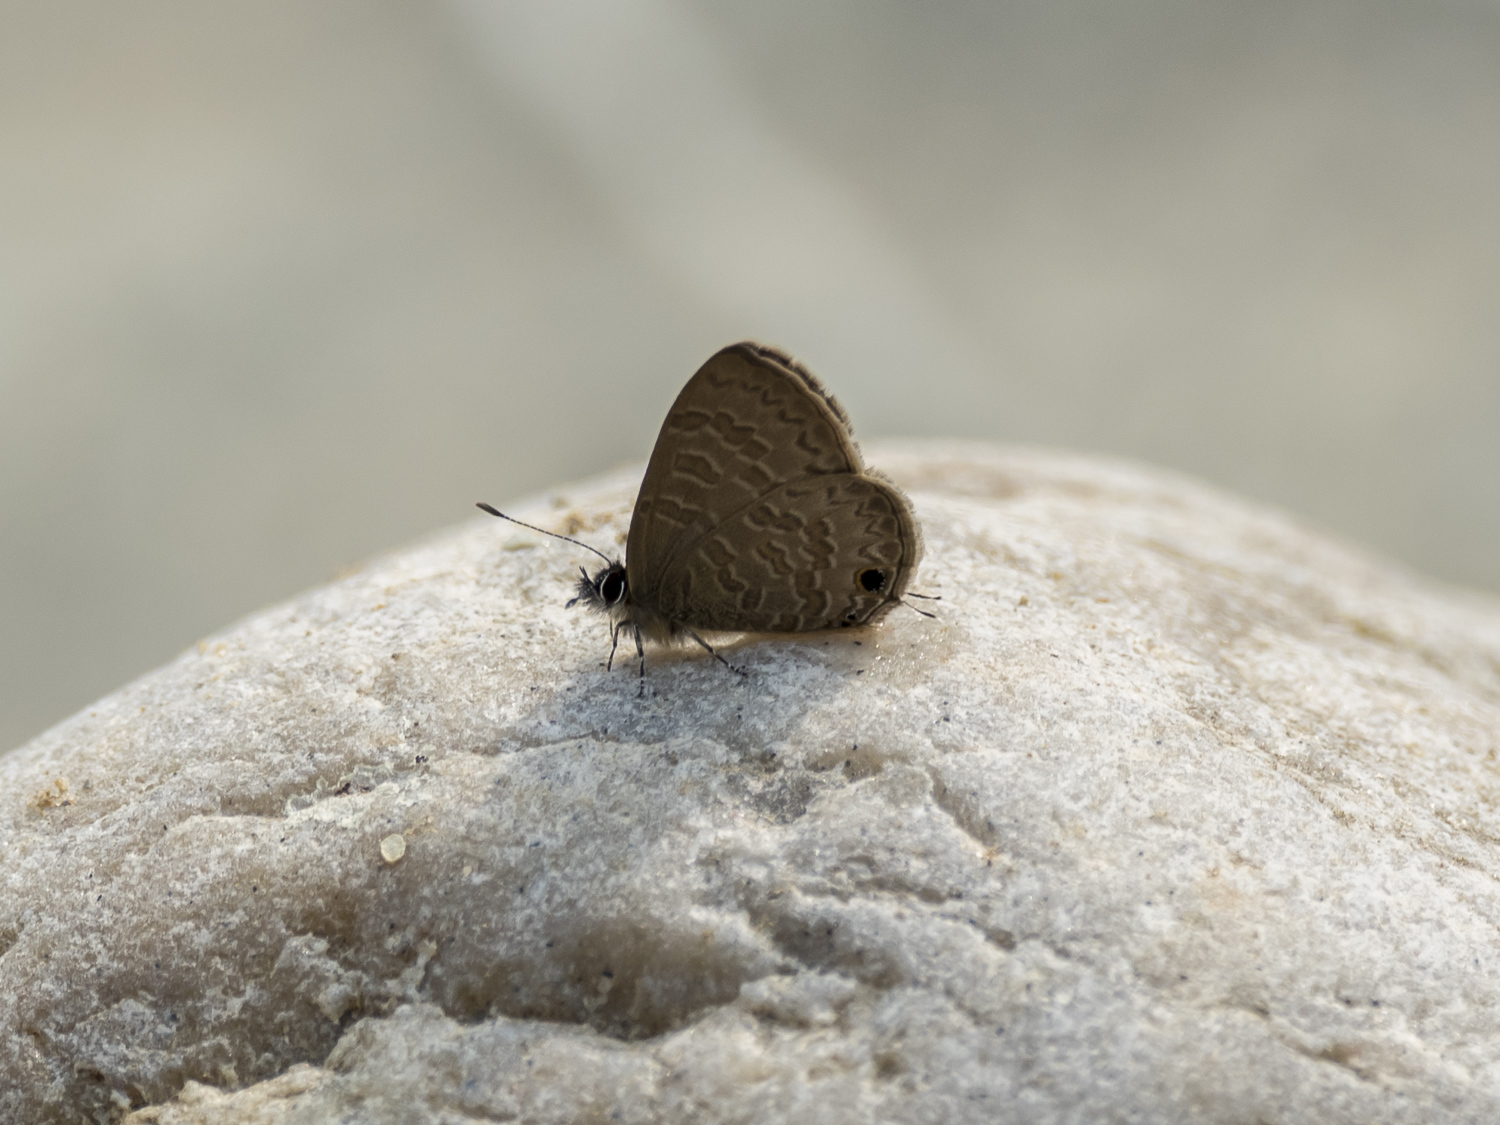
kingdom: Animalia
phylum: Arthropoda
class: Insecta
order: Lepidoptera
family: Lycaenidae
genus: Prosotas
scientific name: Prosotas nora
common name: Common line blue
